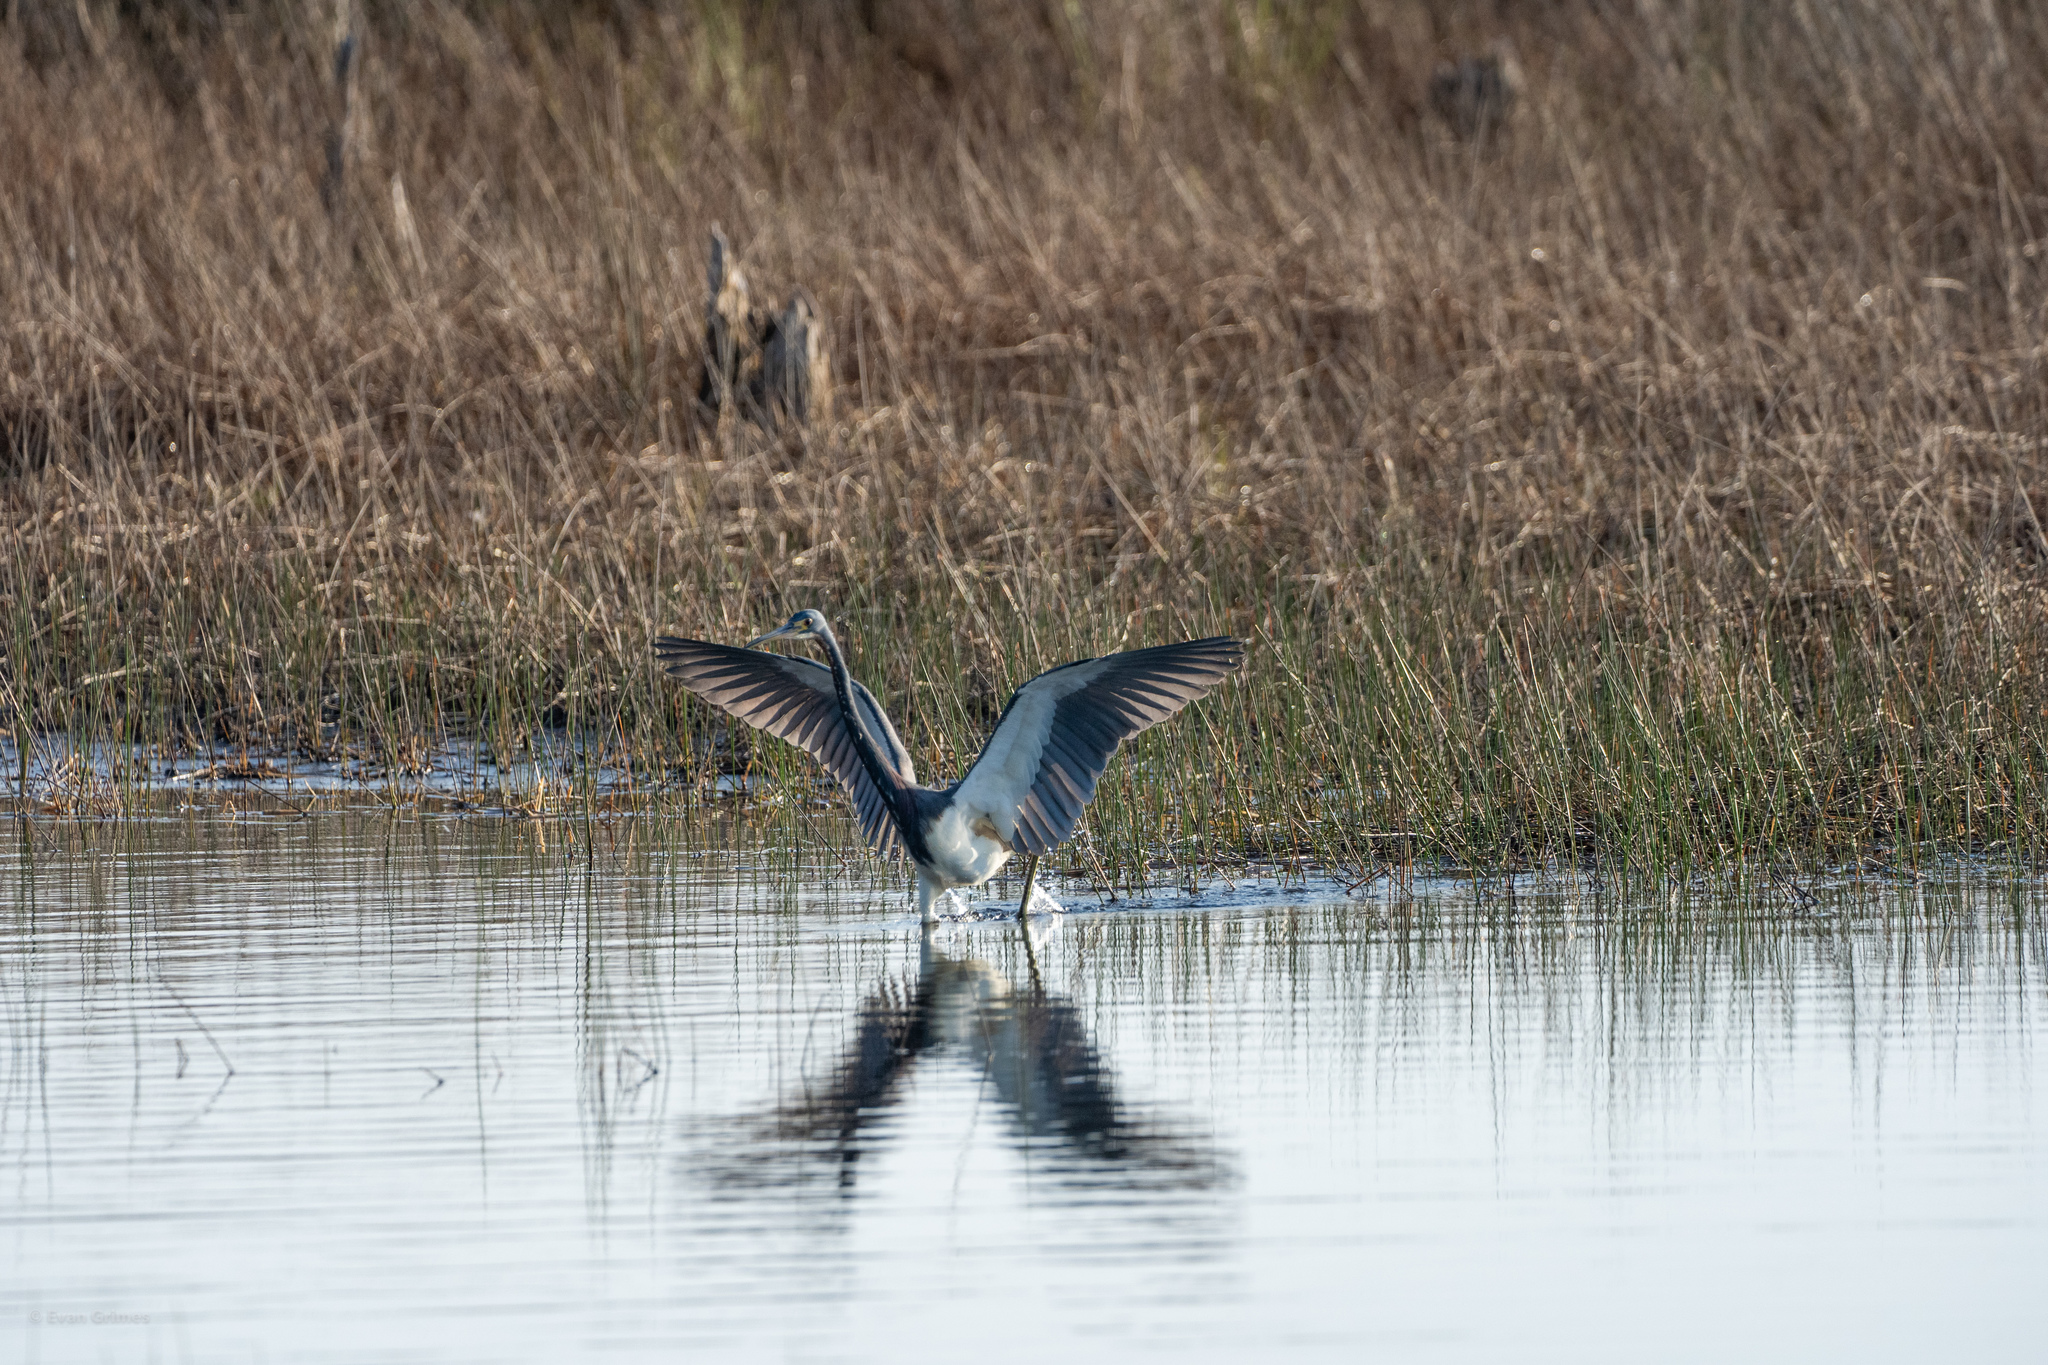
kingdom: Animalia
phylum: Chordata
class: Aves
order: Pelecaniformes
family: Ardeidae
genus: Egretta
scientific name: Egretta tricolor
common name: Tricolored heron
